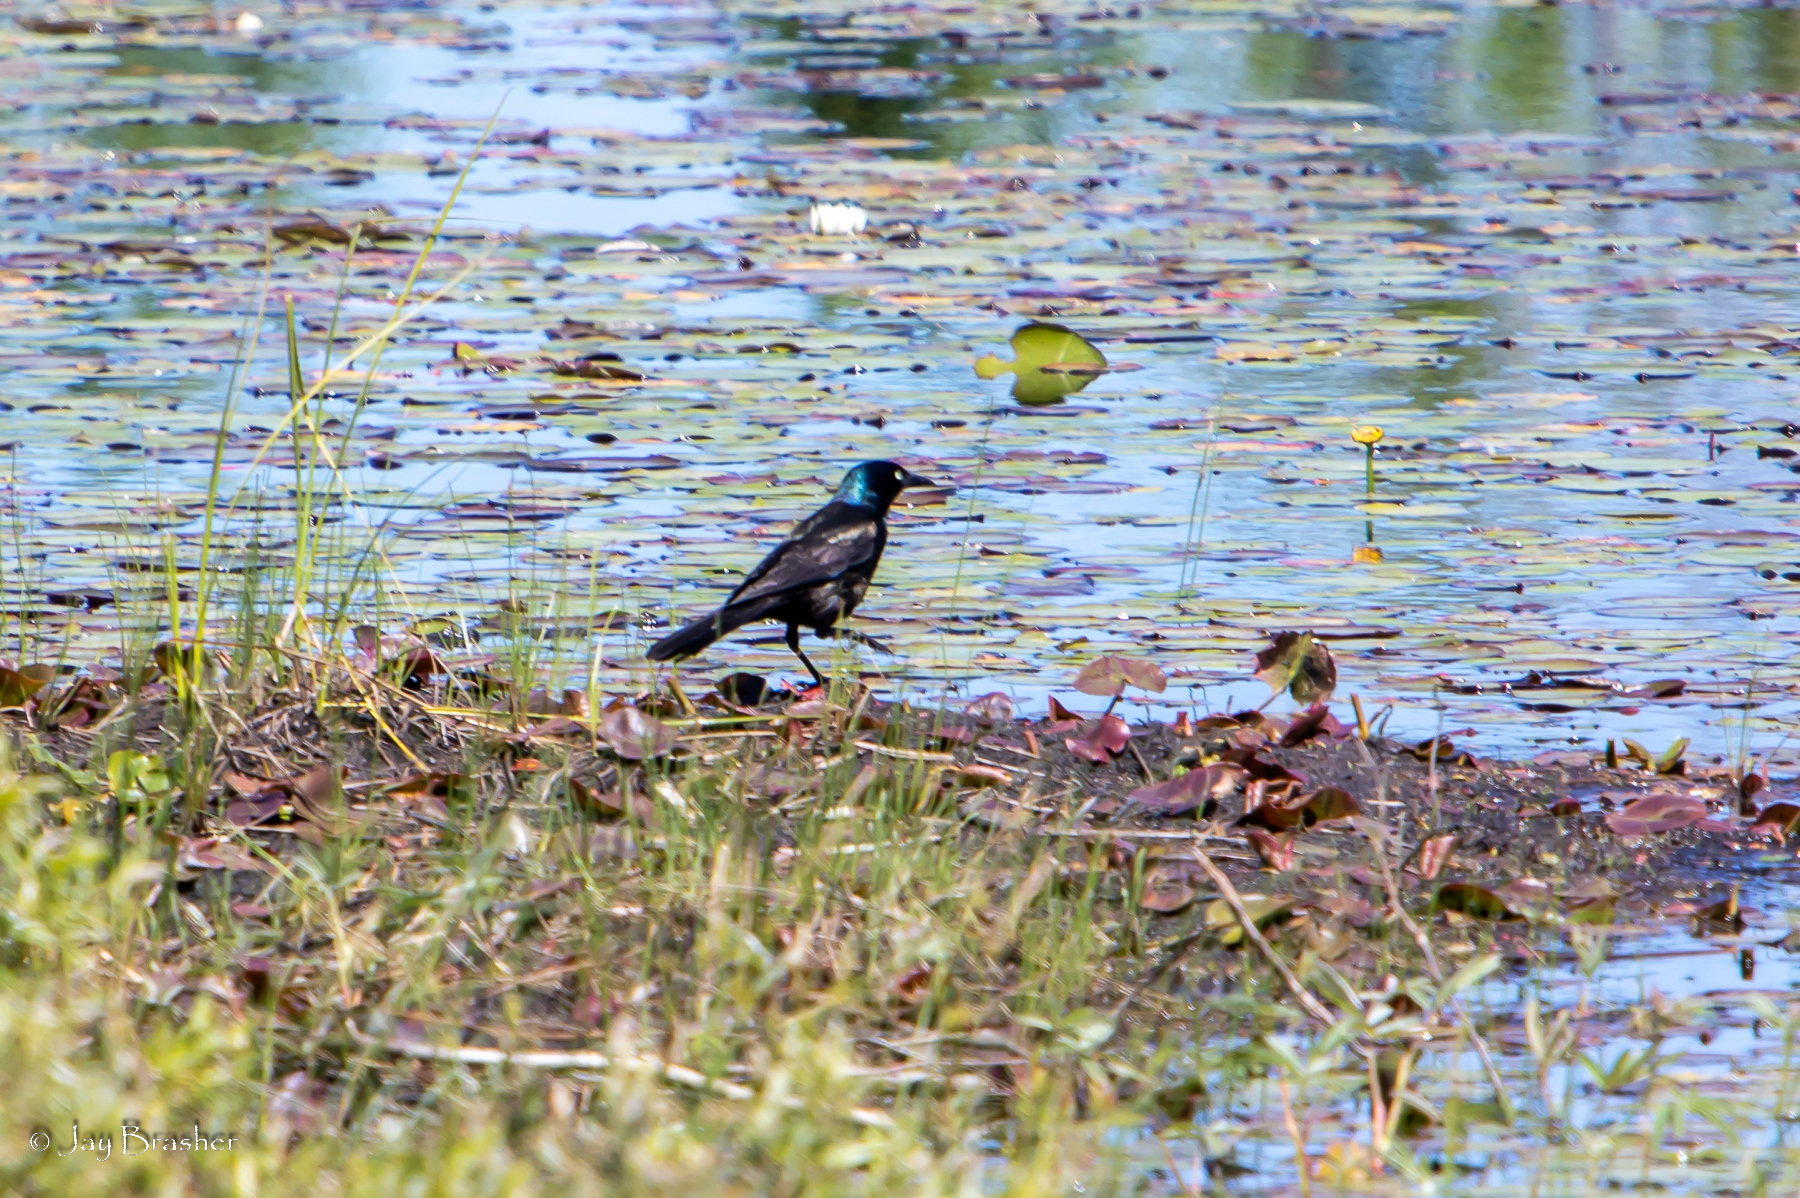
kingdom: Animalia
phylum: Chordata
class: Aves
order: Passeriformes
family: Icteridae
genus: Quiscalus
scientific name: Quiscalus quiscula
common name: Common grackle
